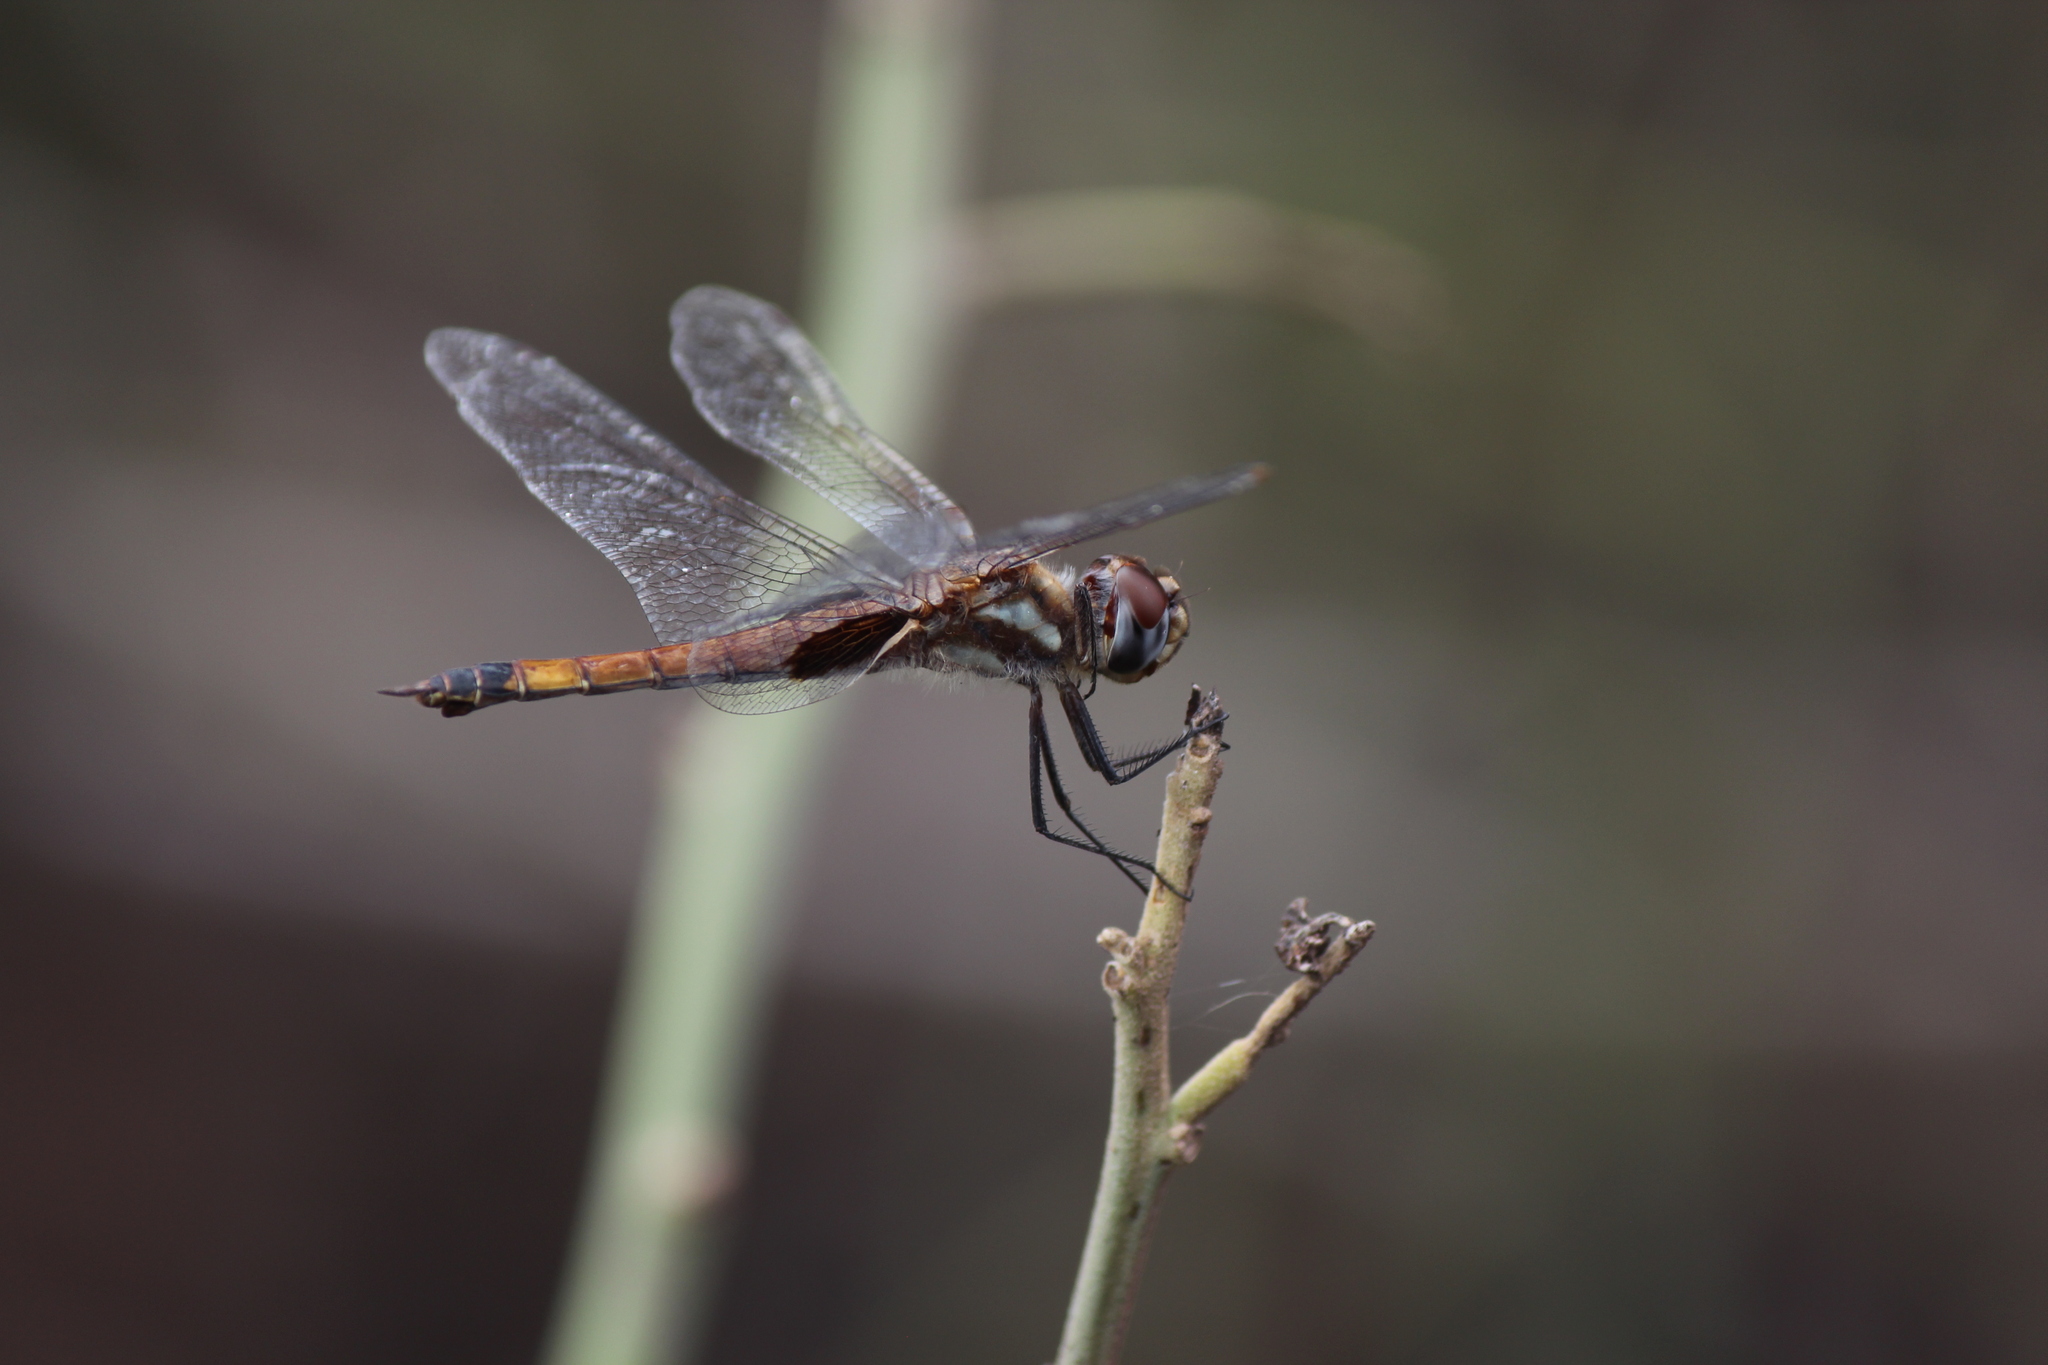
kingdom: Animalia
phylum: Arthropoda
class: Insecta
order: Odonata
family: Libellulidae
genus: Tramea
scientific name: Tramea darwini
